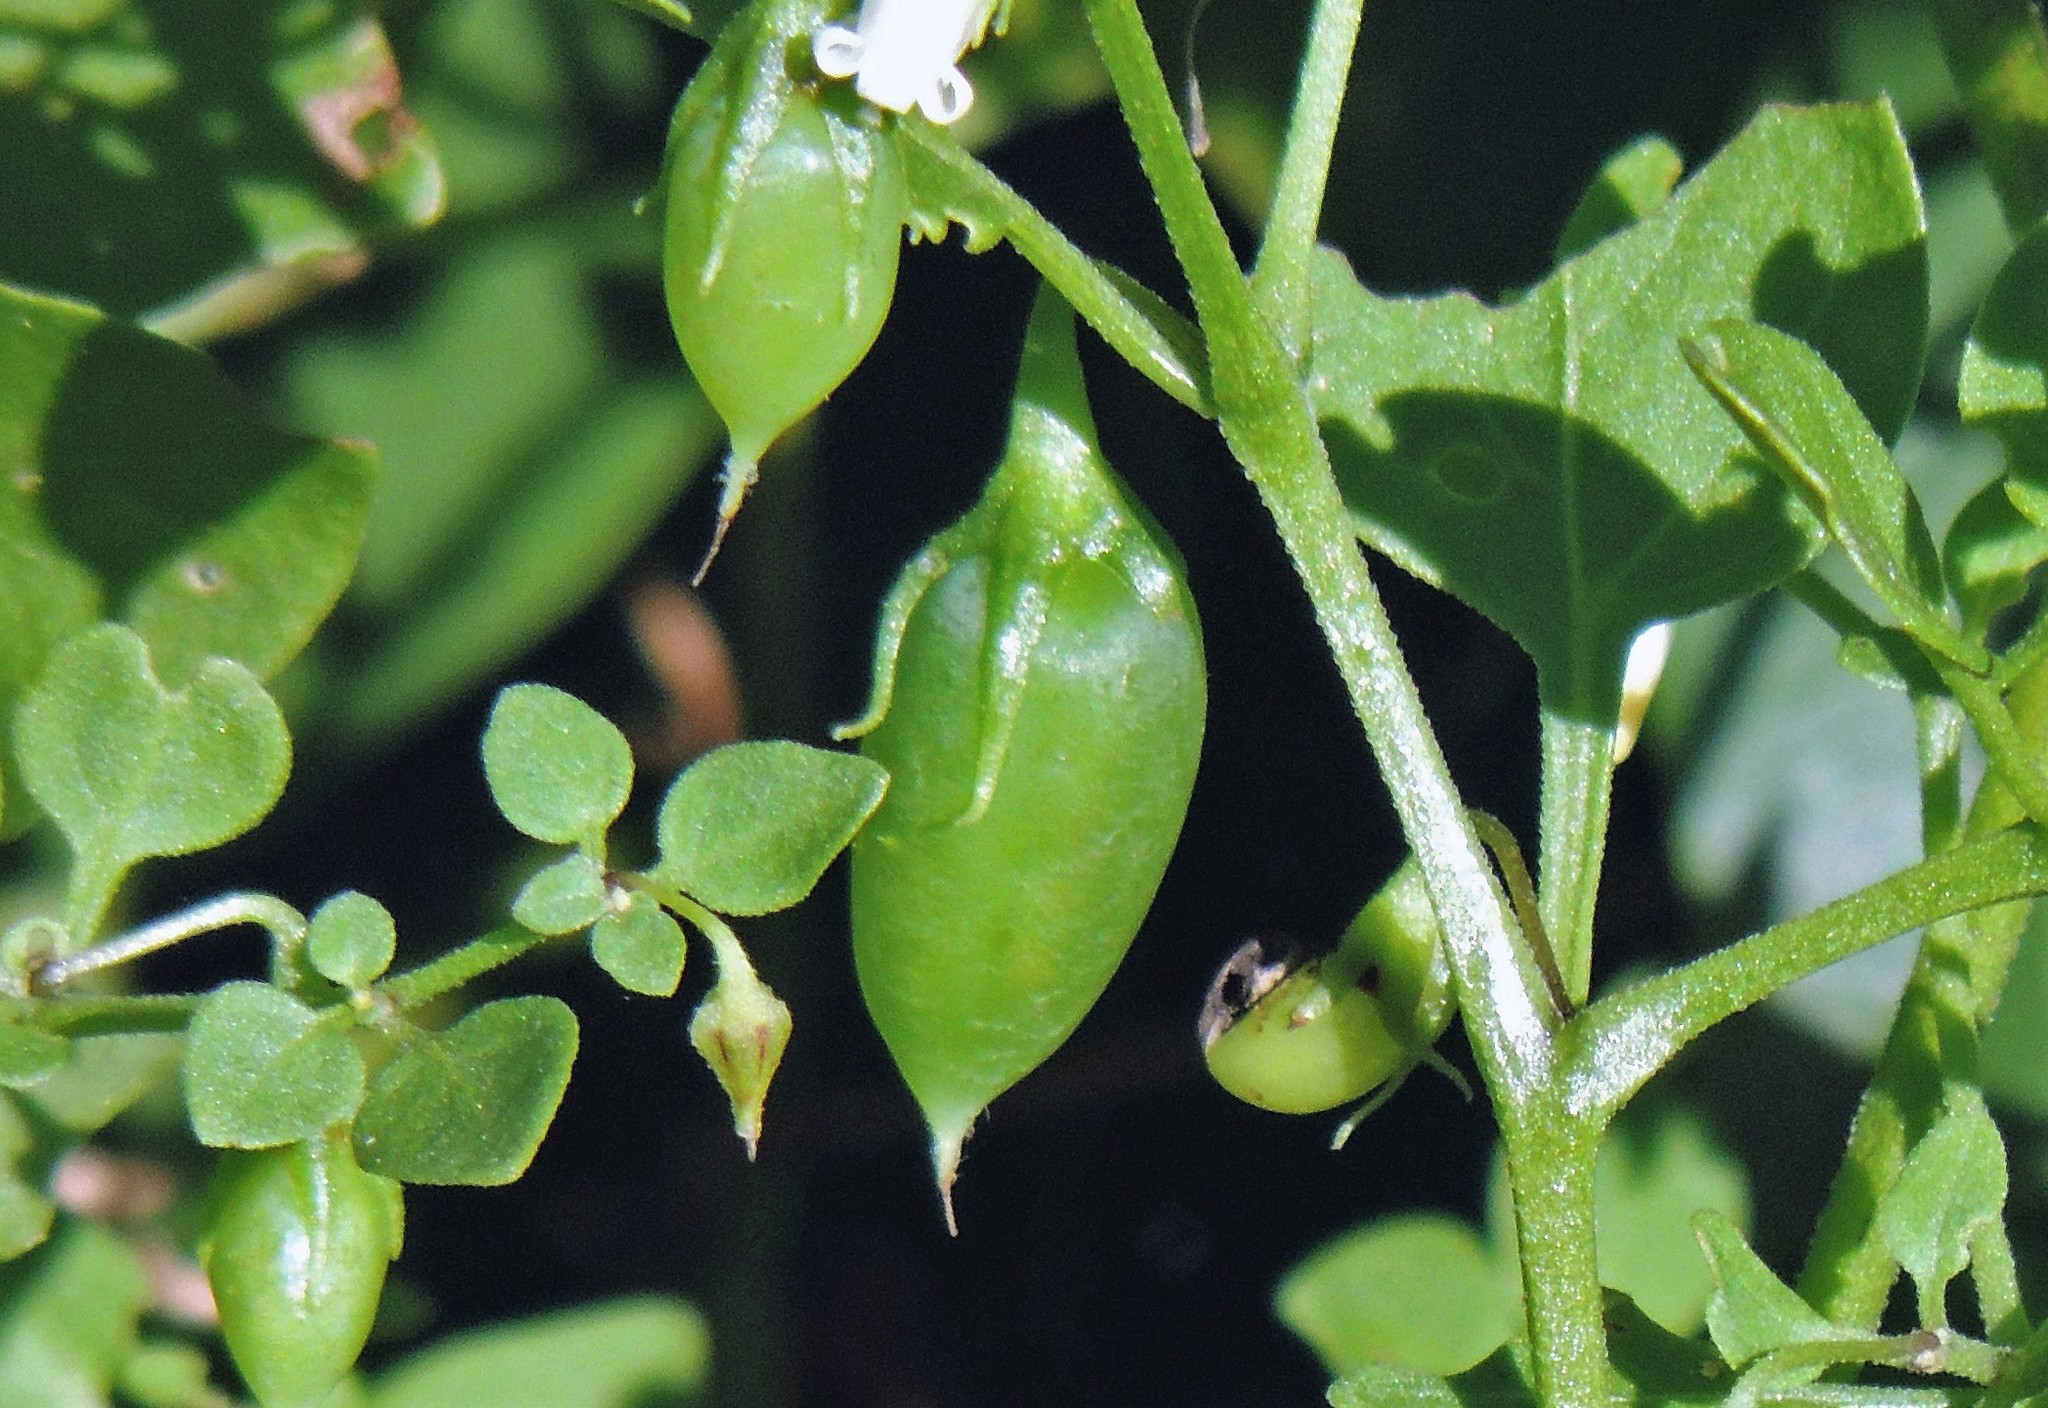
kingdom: Plantae
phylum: Tracheophyta
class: Magnoliopsida
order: Solanales
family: Solanaceae
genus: Salpichroa
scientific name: Salpichroa origanifolia
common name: Lily-of-the-valley-vine
